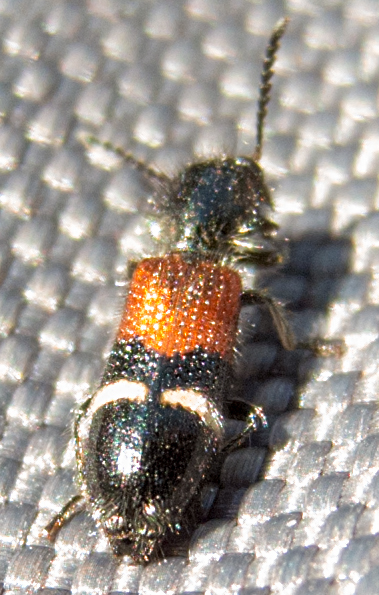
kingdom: Animalia
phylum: Arthropoda
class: Insecta
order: Coleoptera
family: Cleridae
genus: Tilloidea
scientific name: Tilloidea unifasciata
